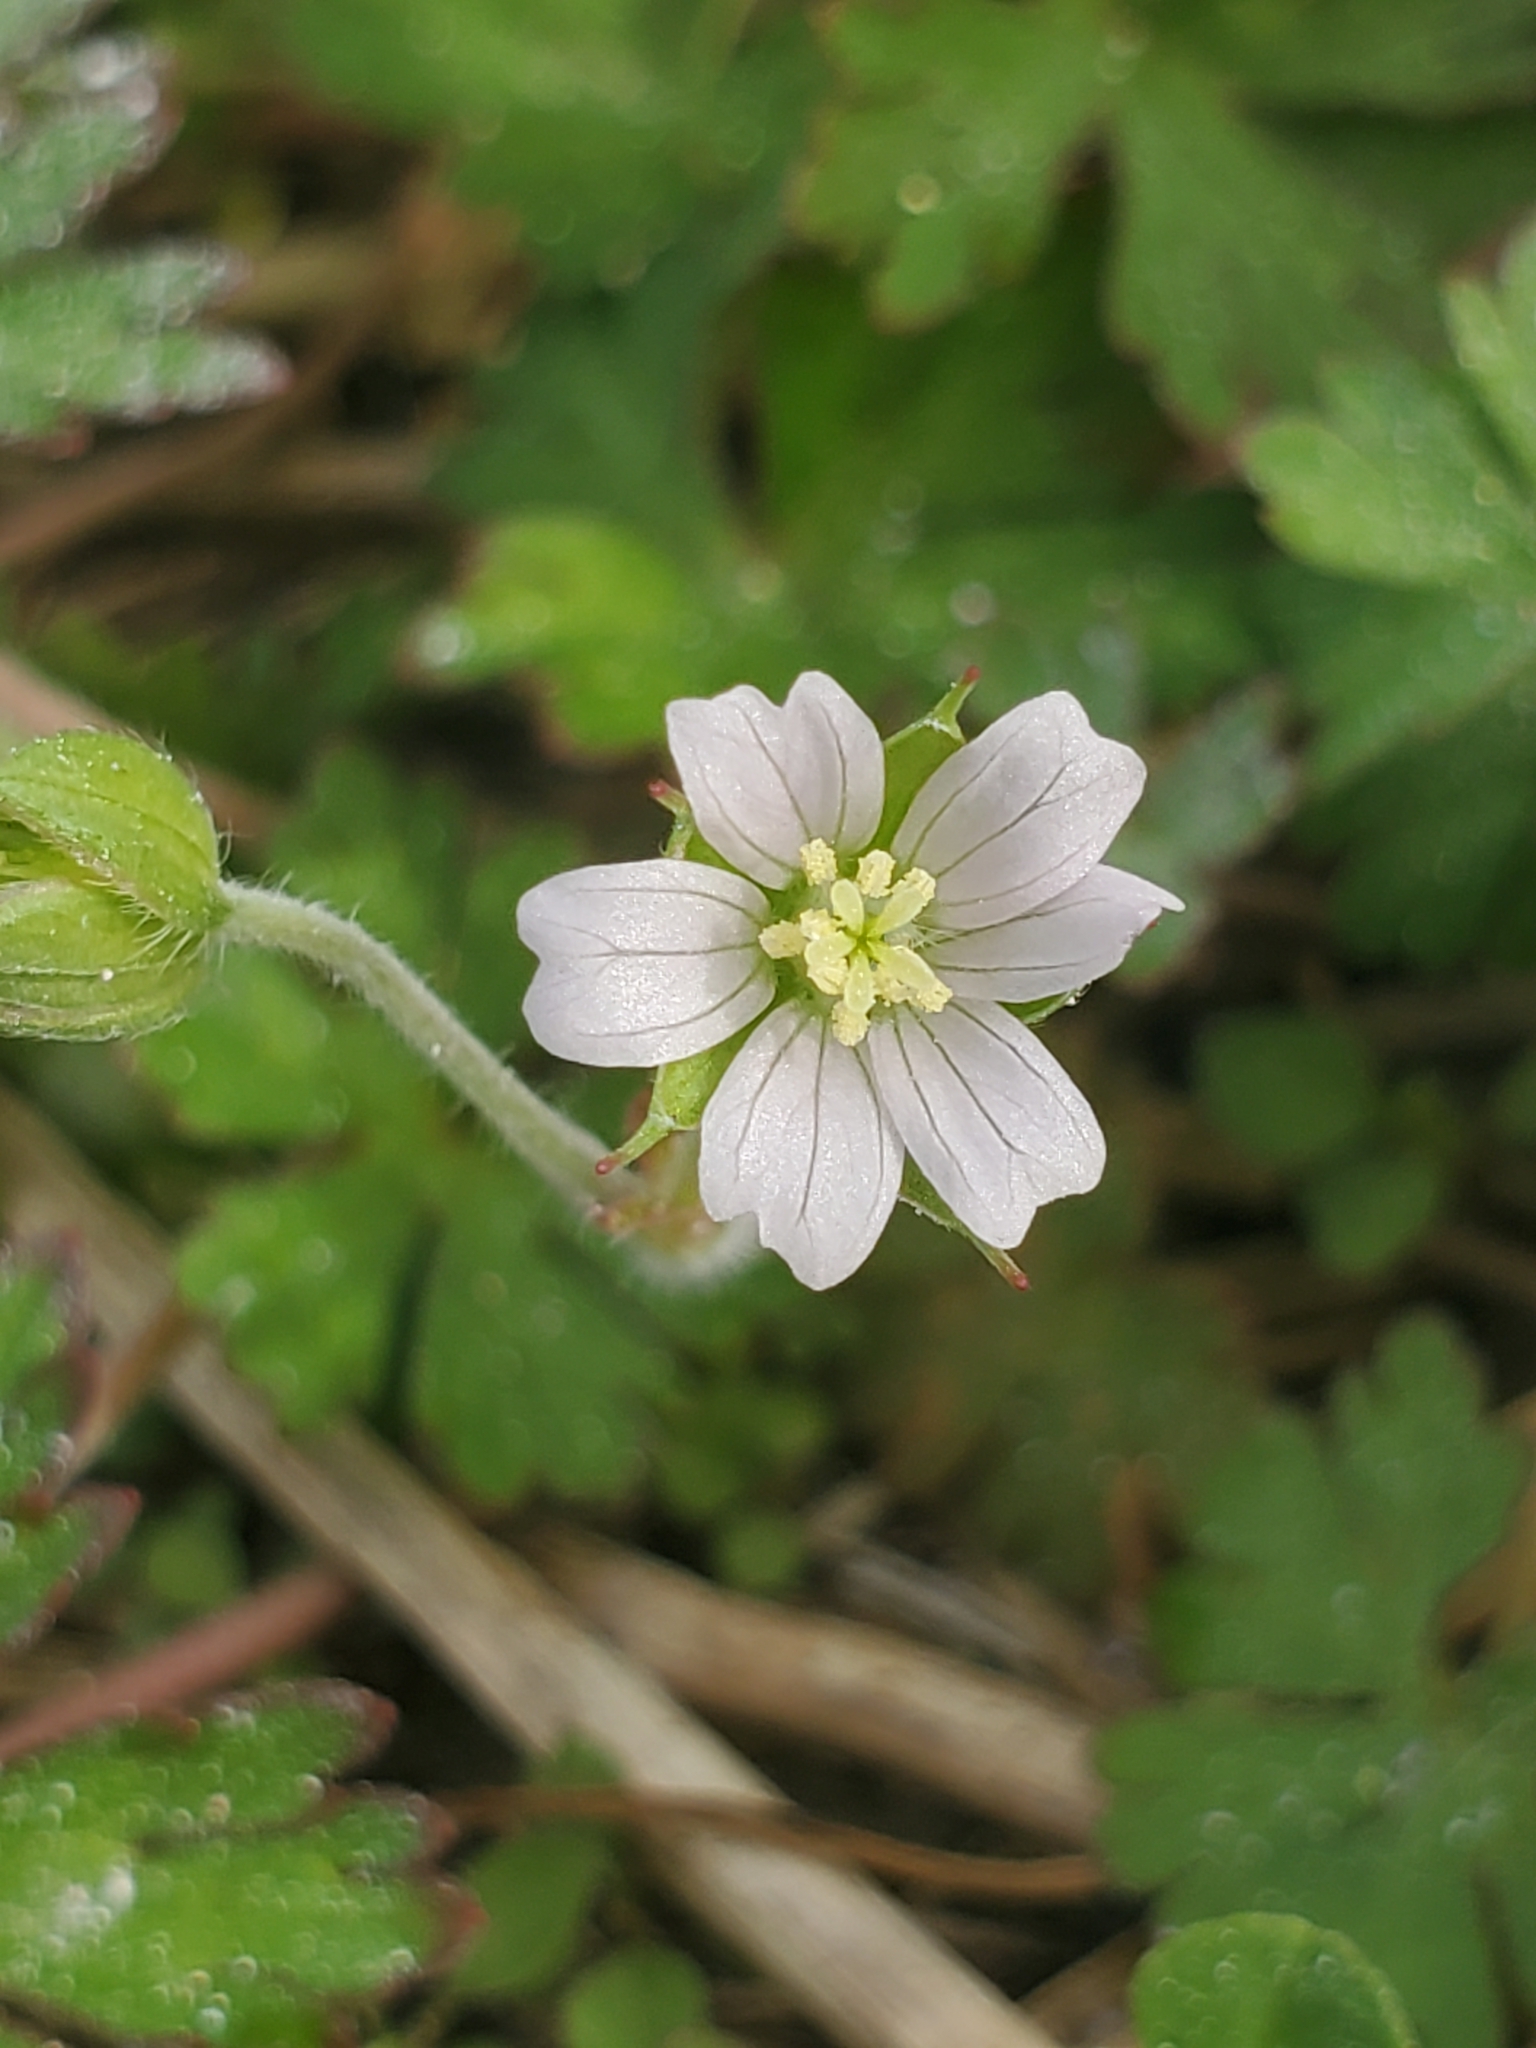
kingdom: Plantae
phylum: Tracheophyta
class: Magnoliopsida
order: Geraniales
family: Geraniaceae
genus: Geranium
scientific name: Geranium carolinianum
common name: Carolina crane's-bill
